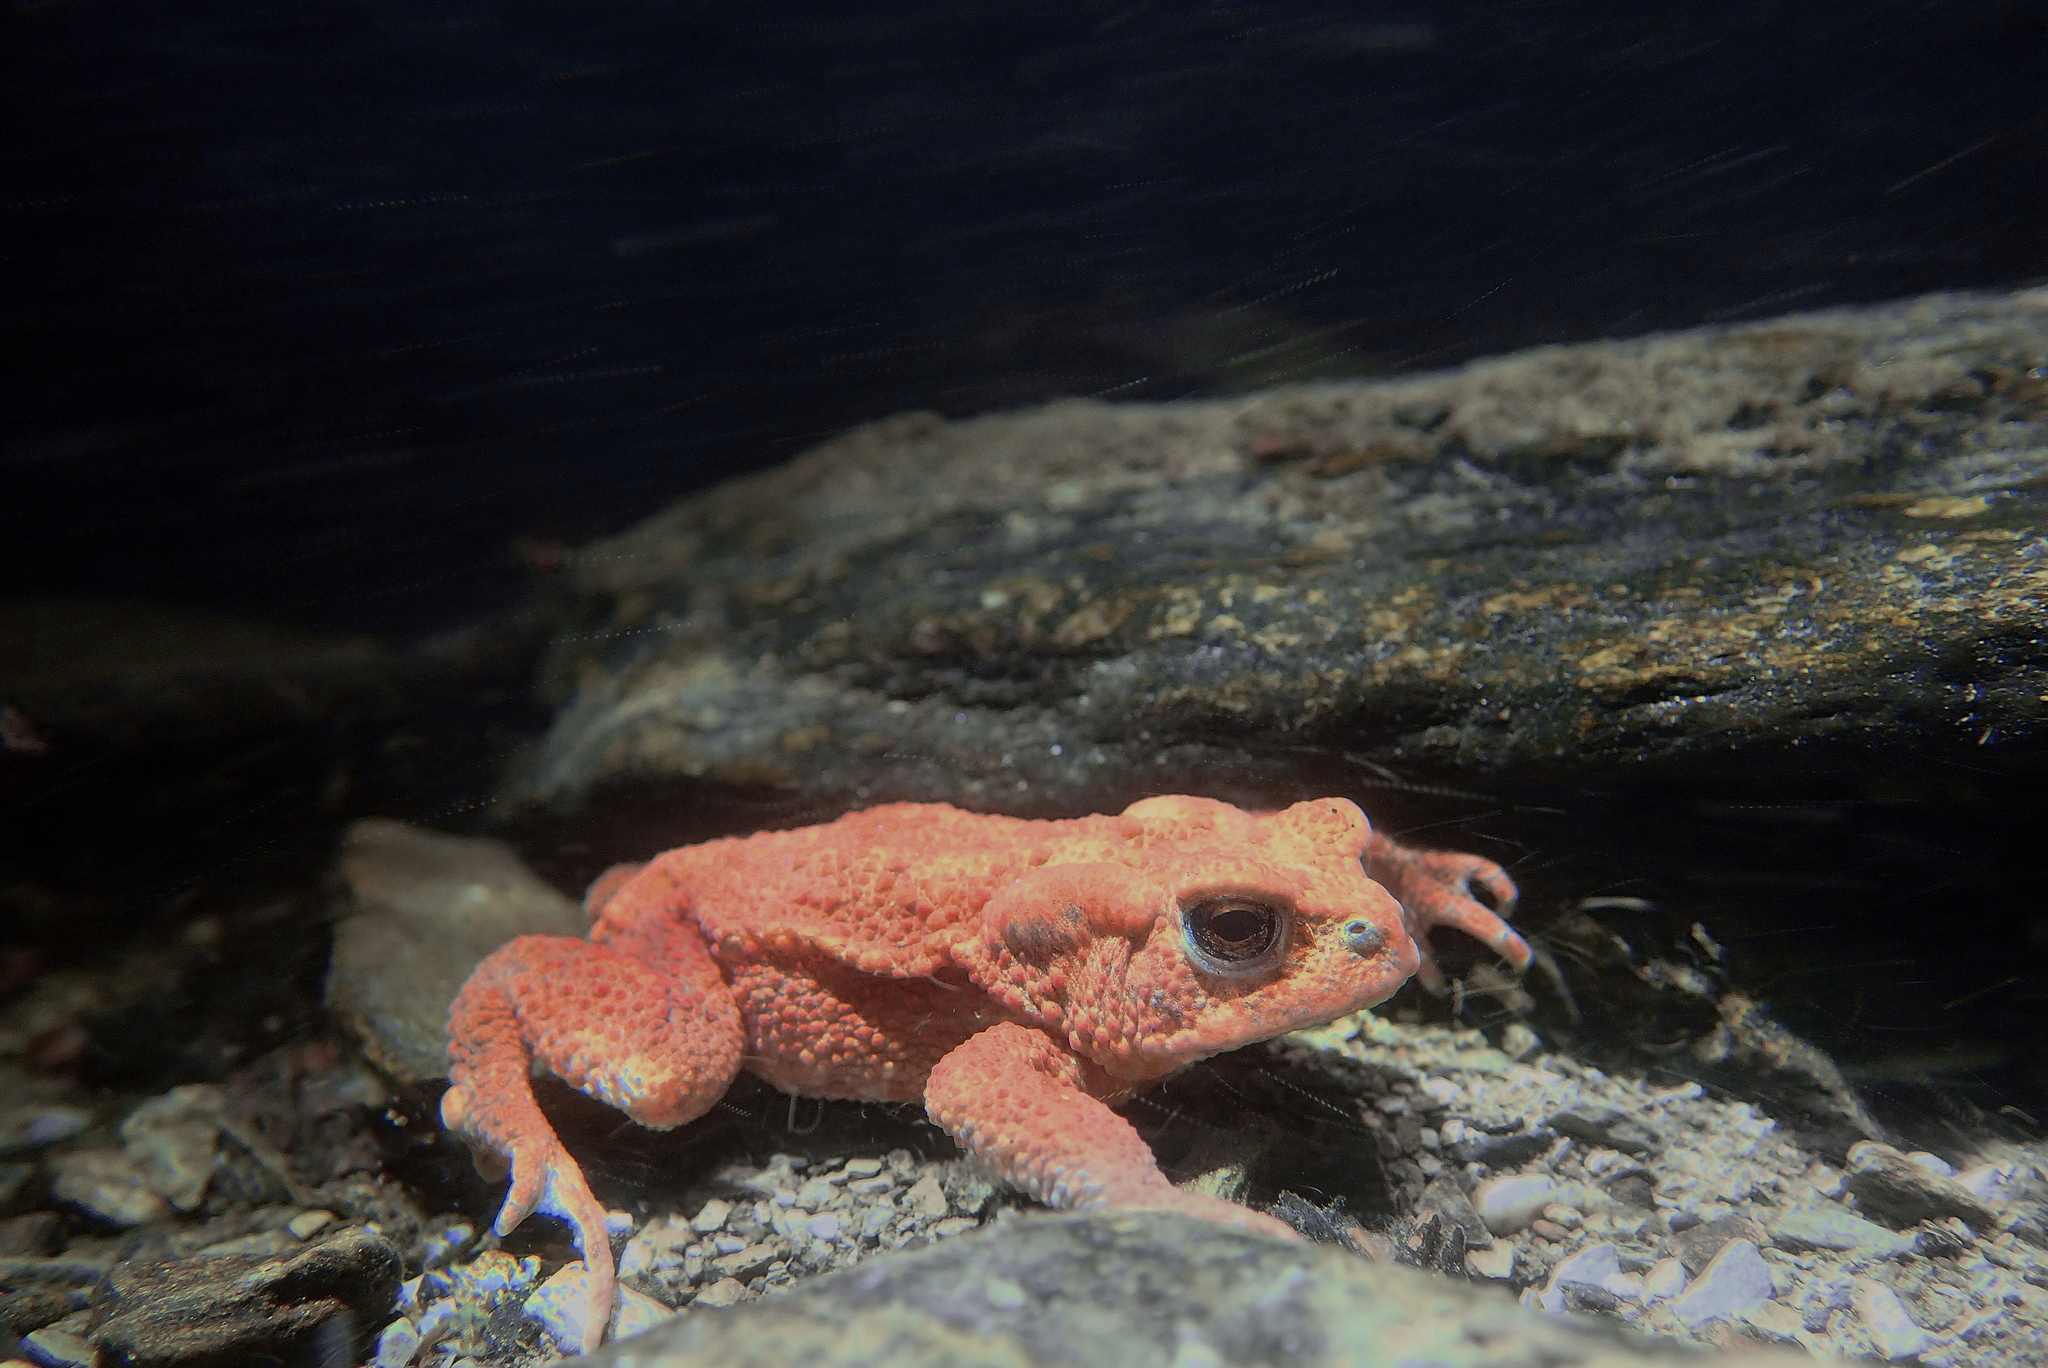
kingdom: Animalia
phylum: Chordata
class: Amphibia
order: Anura
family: Bufonidae
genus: Bufo
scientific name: Bufo bufo
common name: Common toad
